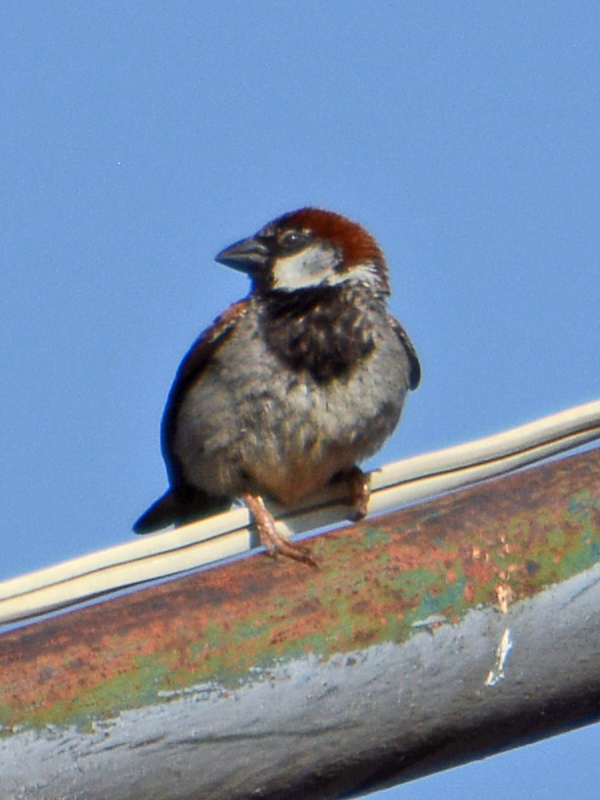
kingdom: Animalia
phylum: Chordata
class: Aves
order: Passeriformes
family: Passeridae
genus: Passer
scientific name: Passer domesticus
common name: House sparrow
